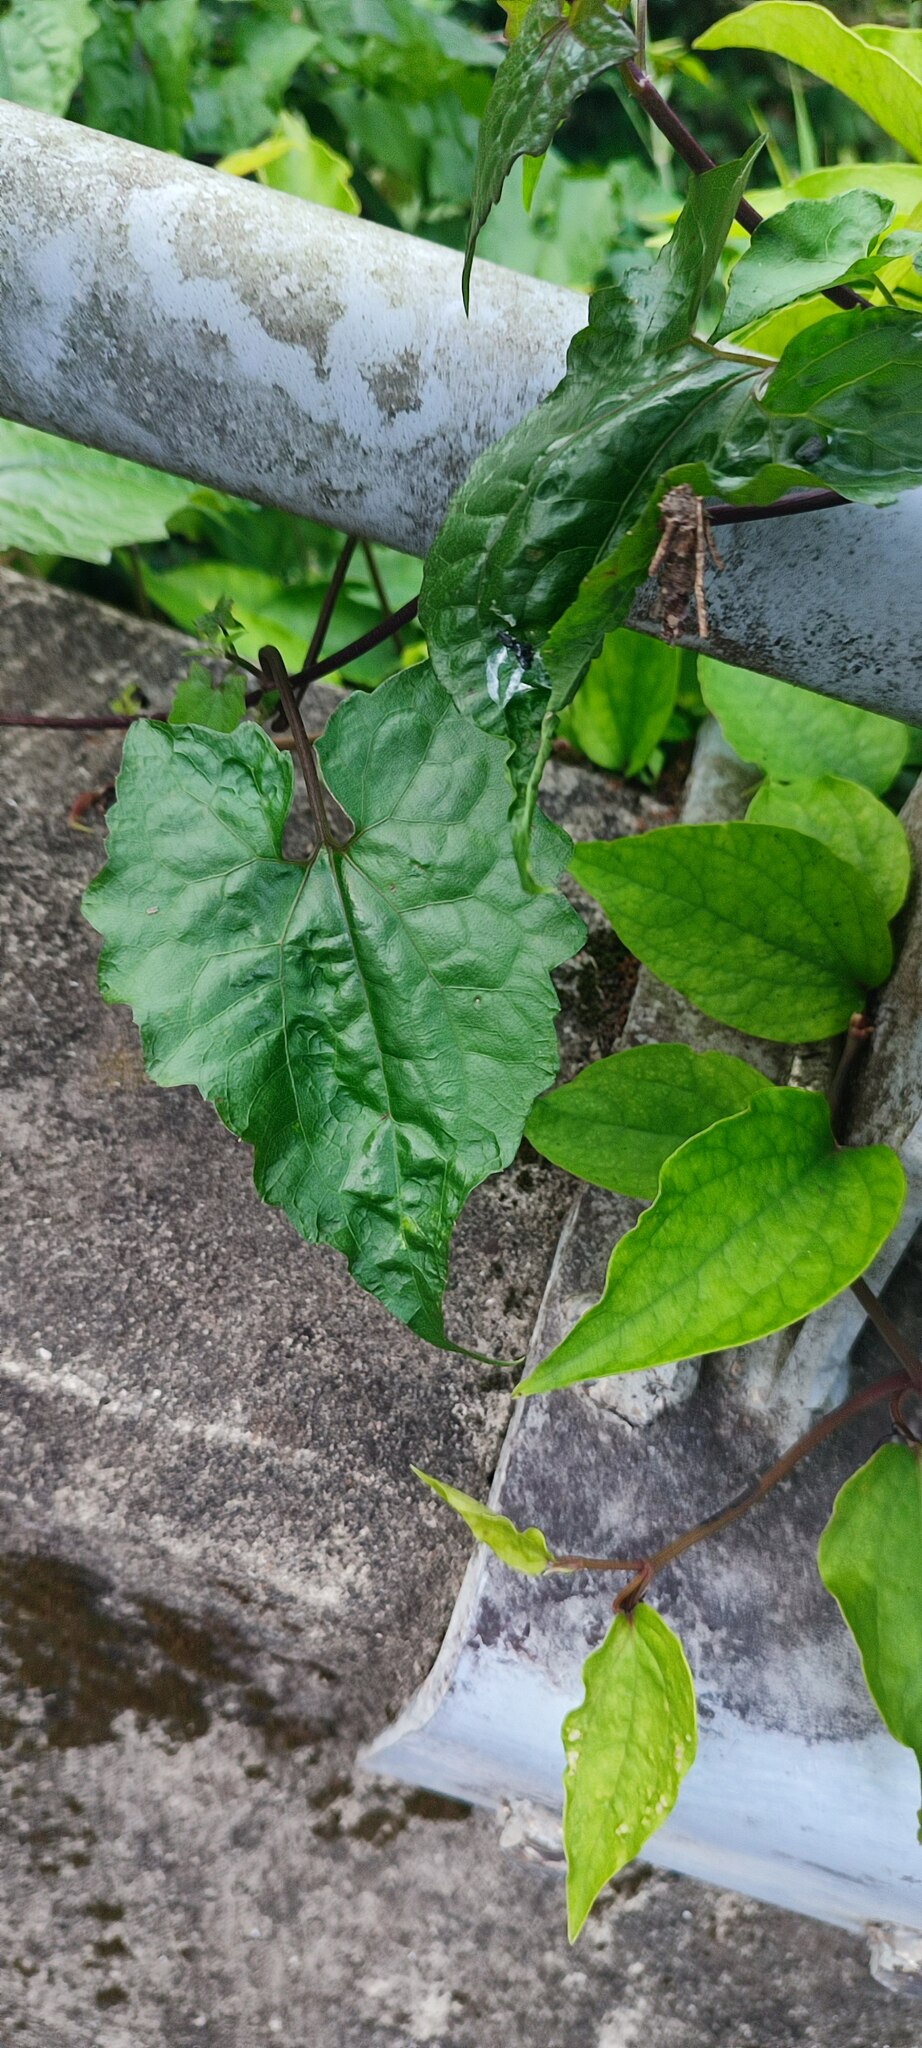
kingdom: Plantae
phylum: Tracheophyta
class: Magnoliopsida
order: Asterales
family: Asteraceae
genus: Mikania
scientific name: Mikania micrantha
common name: Mile-a-minute
